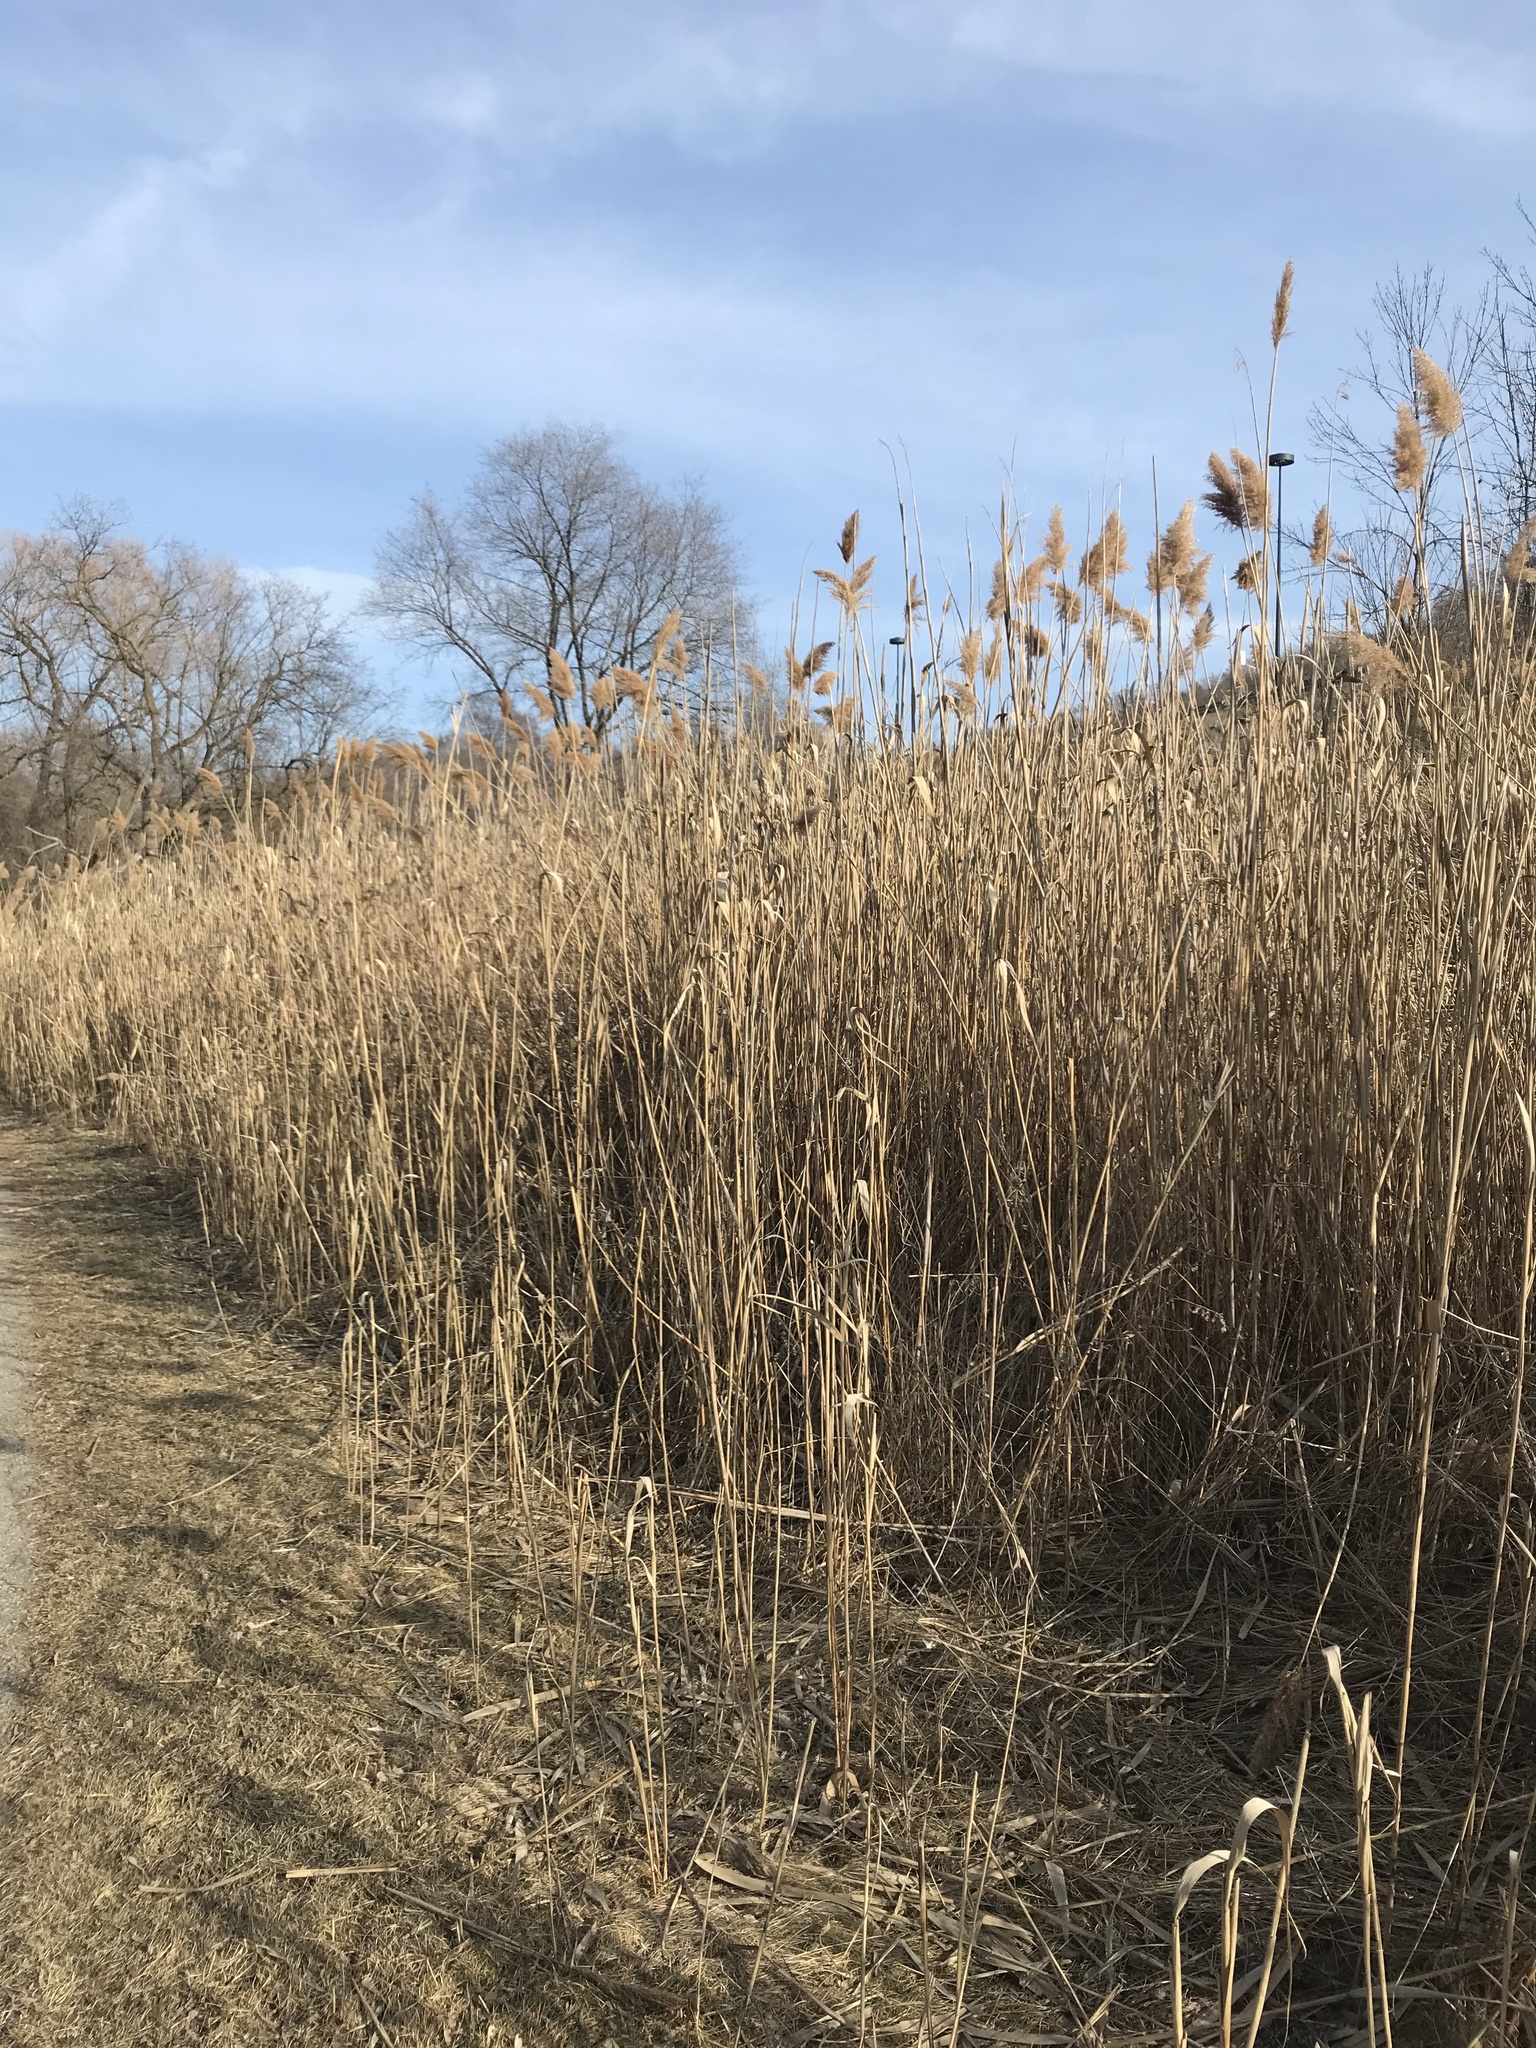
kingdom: Plantae
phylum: Tracheophyta
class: Liliopsida
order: Poales
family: Poaceae
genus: Phragmites
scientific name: Phragmites australis
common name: Common reed
